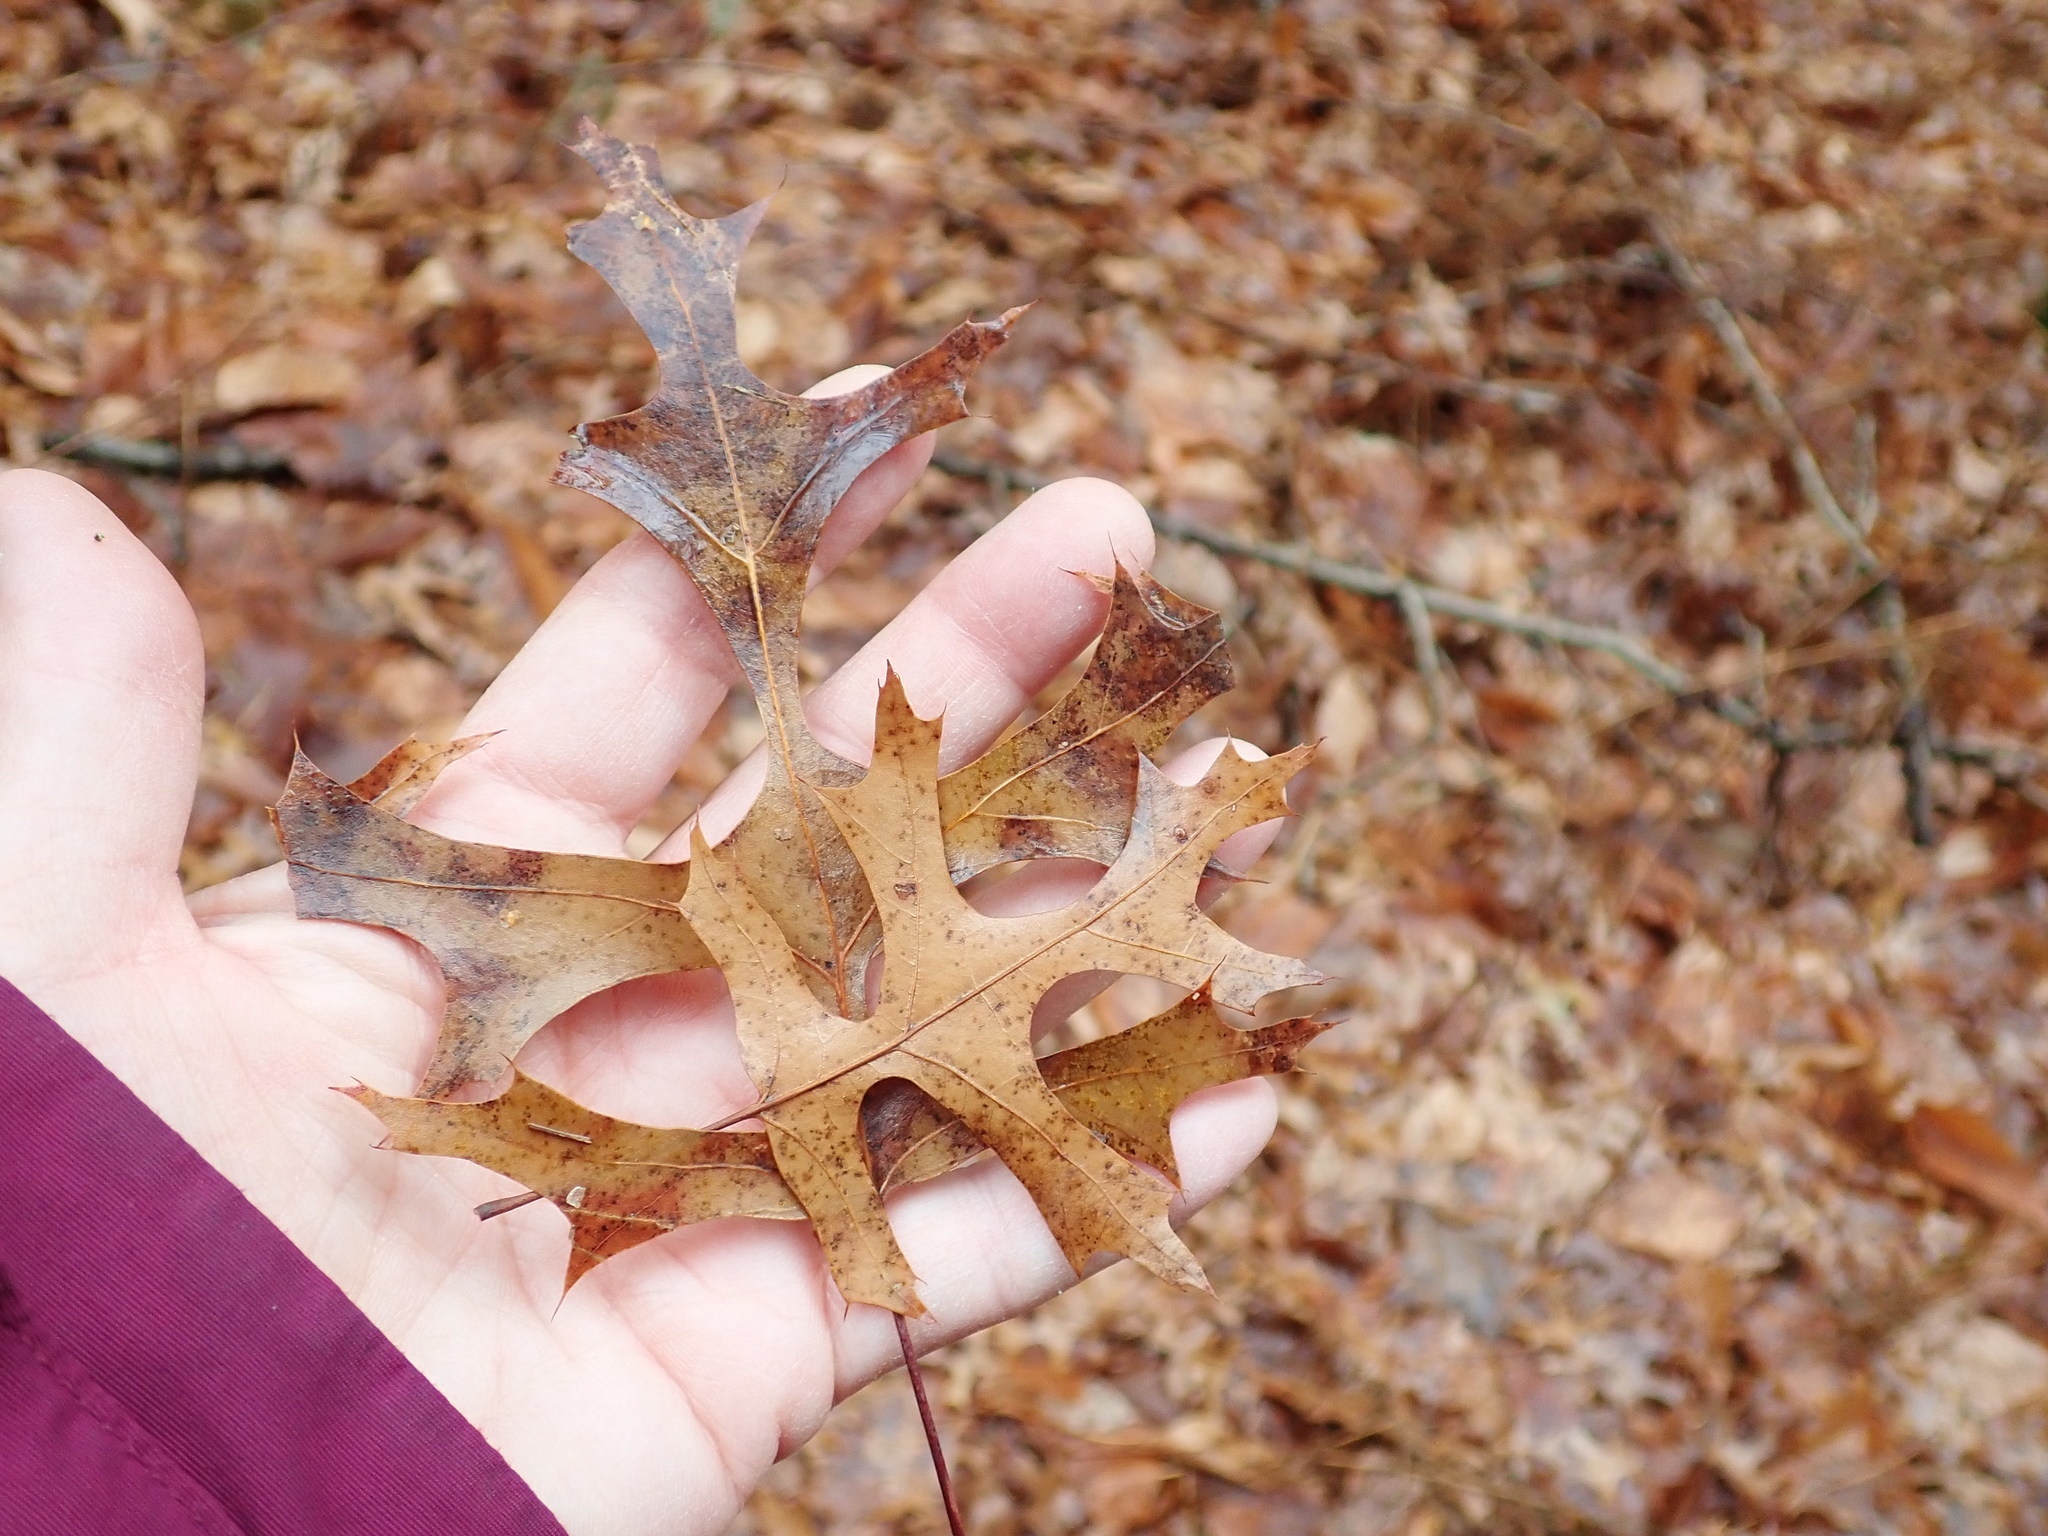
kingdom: Plantae
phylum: Tracheophyta
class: Magnoliopsida
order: Fagales
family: Fagaceae
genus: Quercus
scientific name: Quercus coccinea
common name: Scarlet oak
